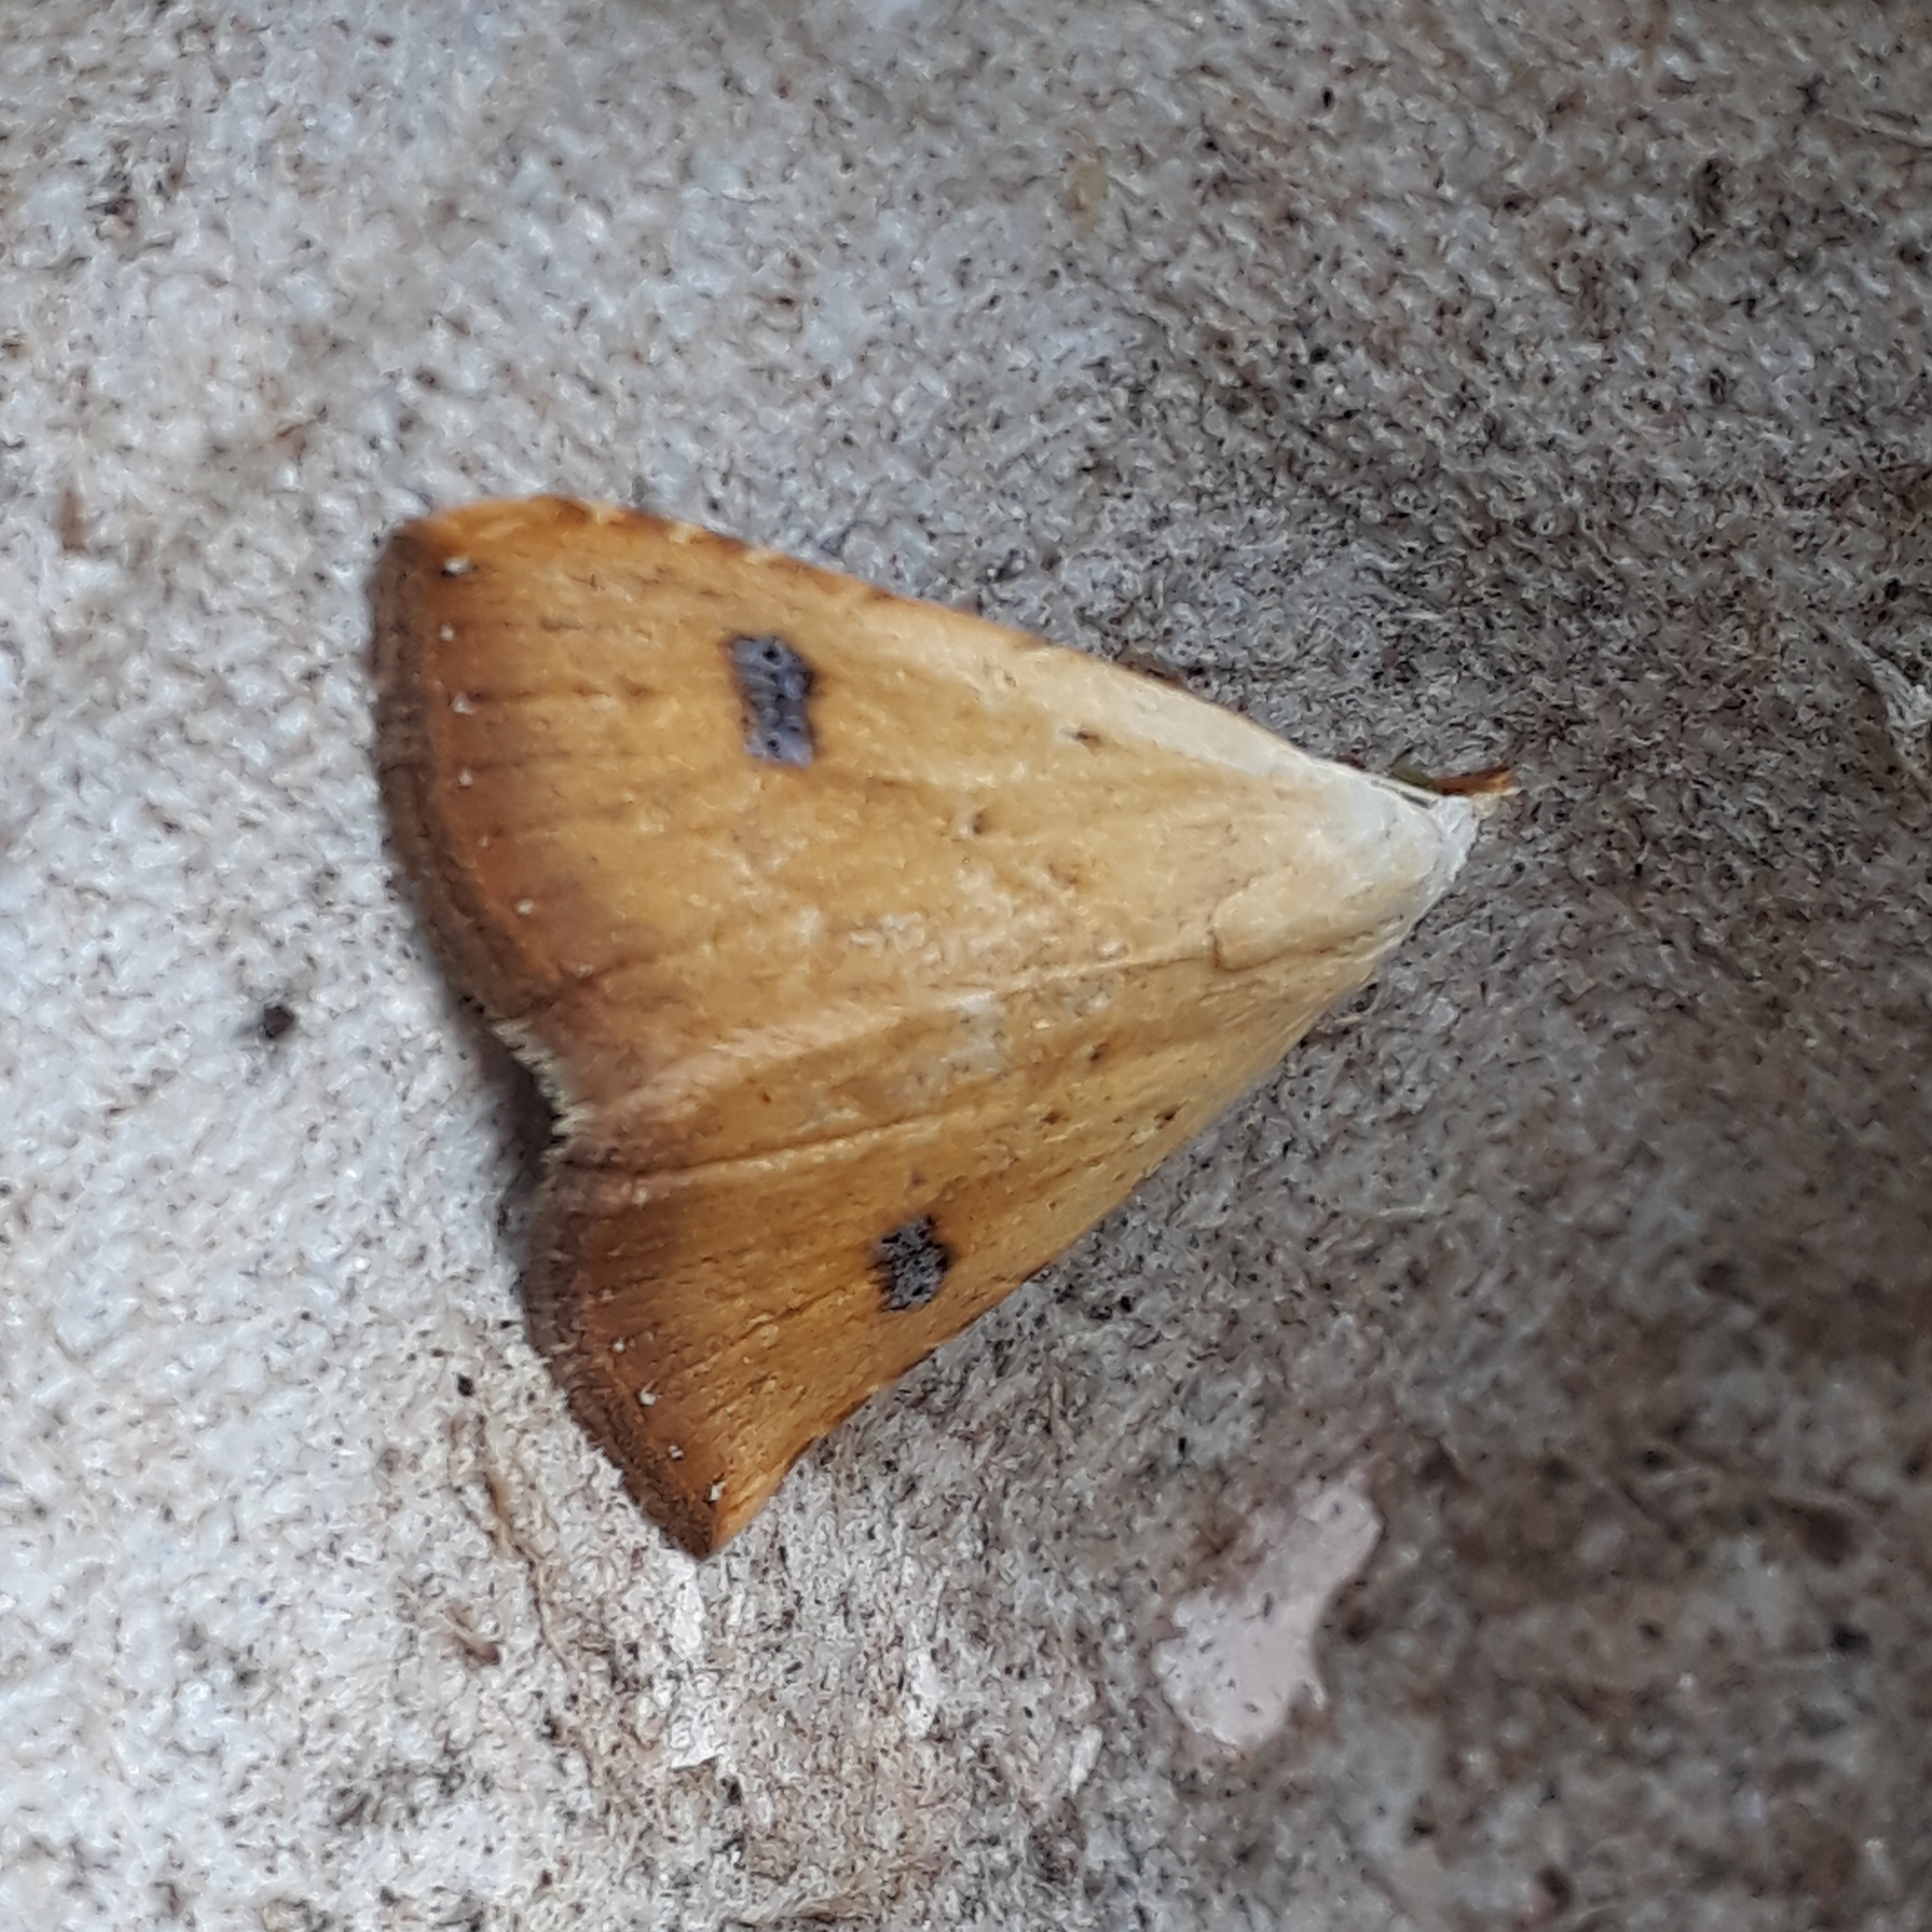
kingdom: Animalia
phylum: Arthropoda
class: Insecta
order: Lepidoptera
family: Erebidae
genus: Rivula
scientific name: Rivula sericealis
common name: Straw dot
